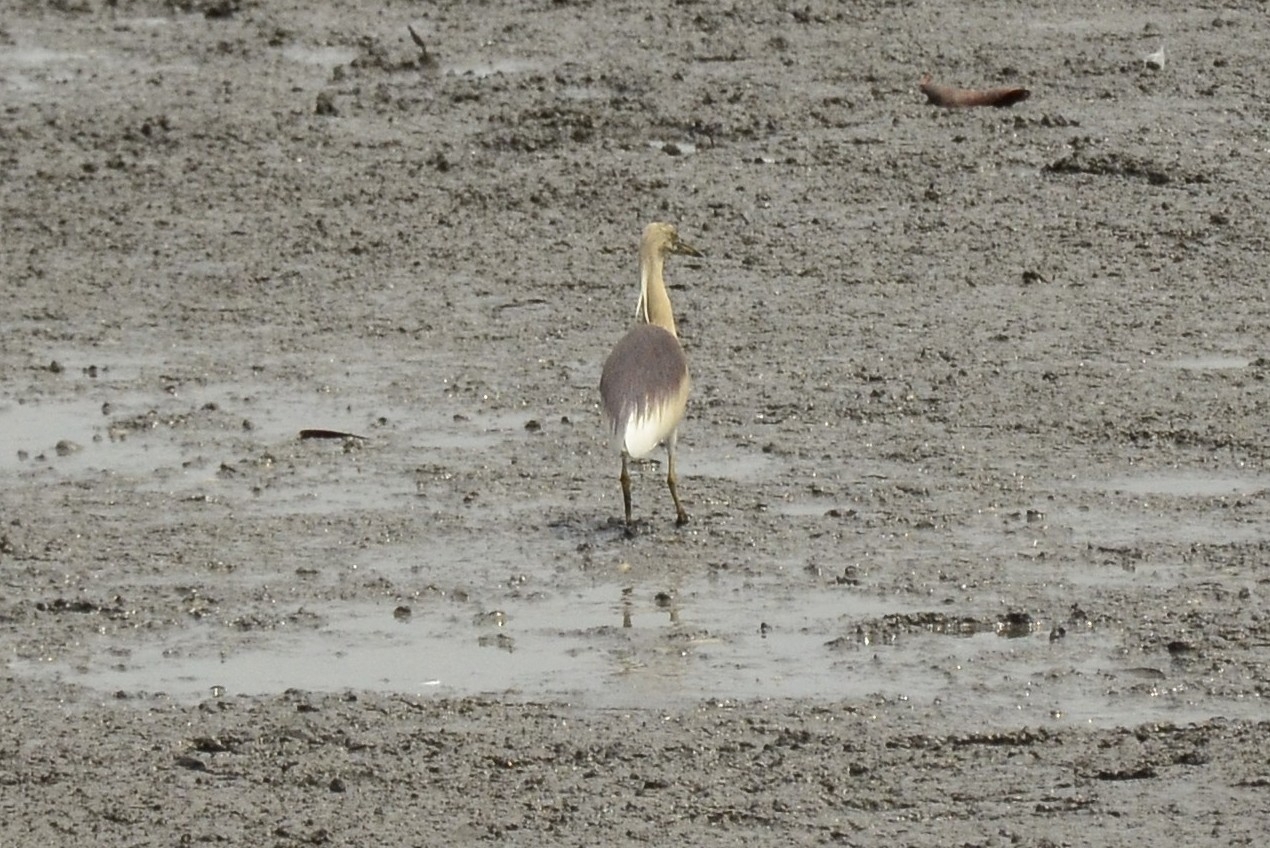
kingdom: Animalia
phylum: Chordata
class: Aves
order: Pelecaniformes
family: Ardeidae
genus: Ardeola
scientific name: Ardeola grayii
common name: Indian pond heron
